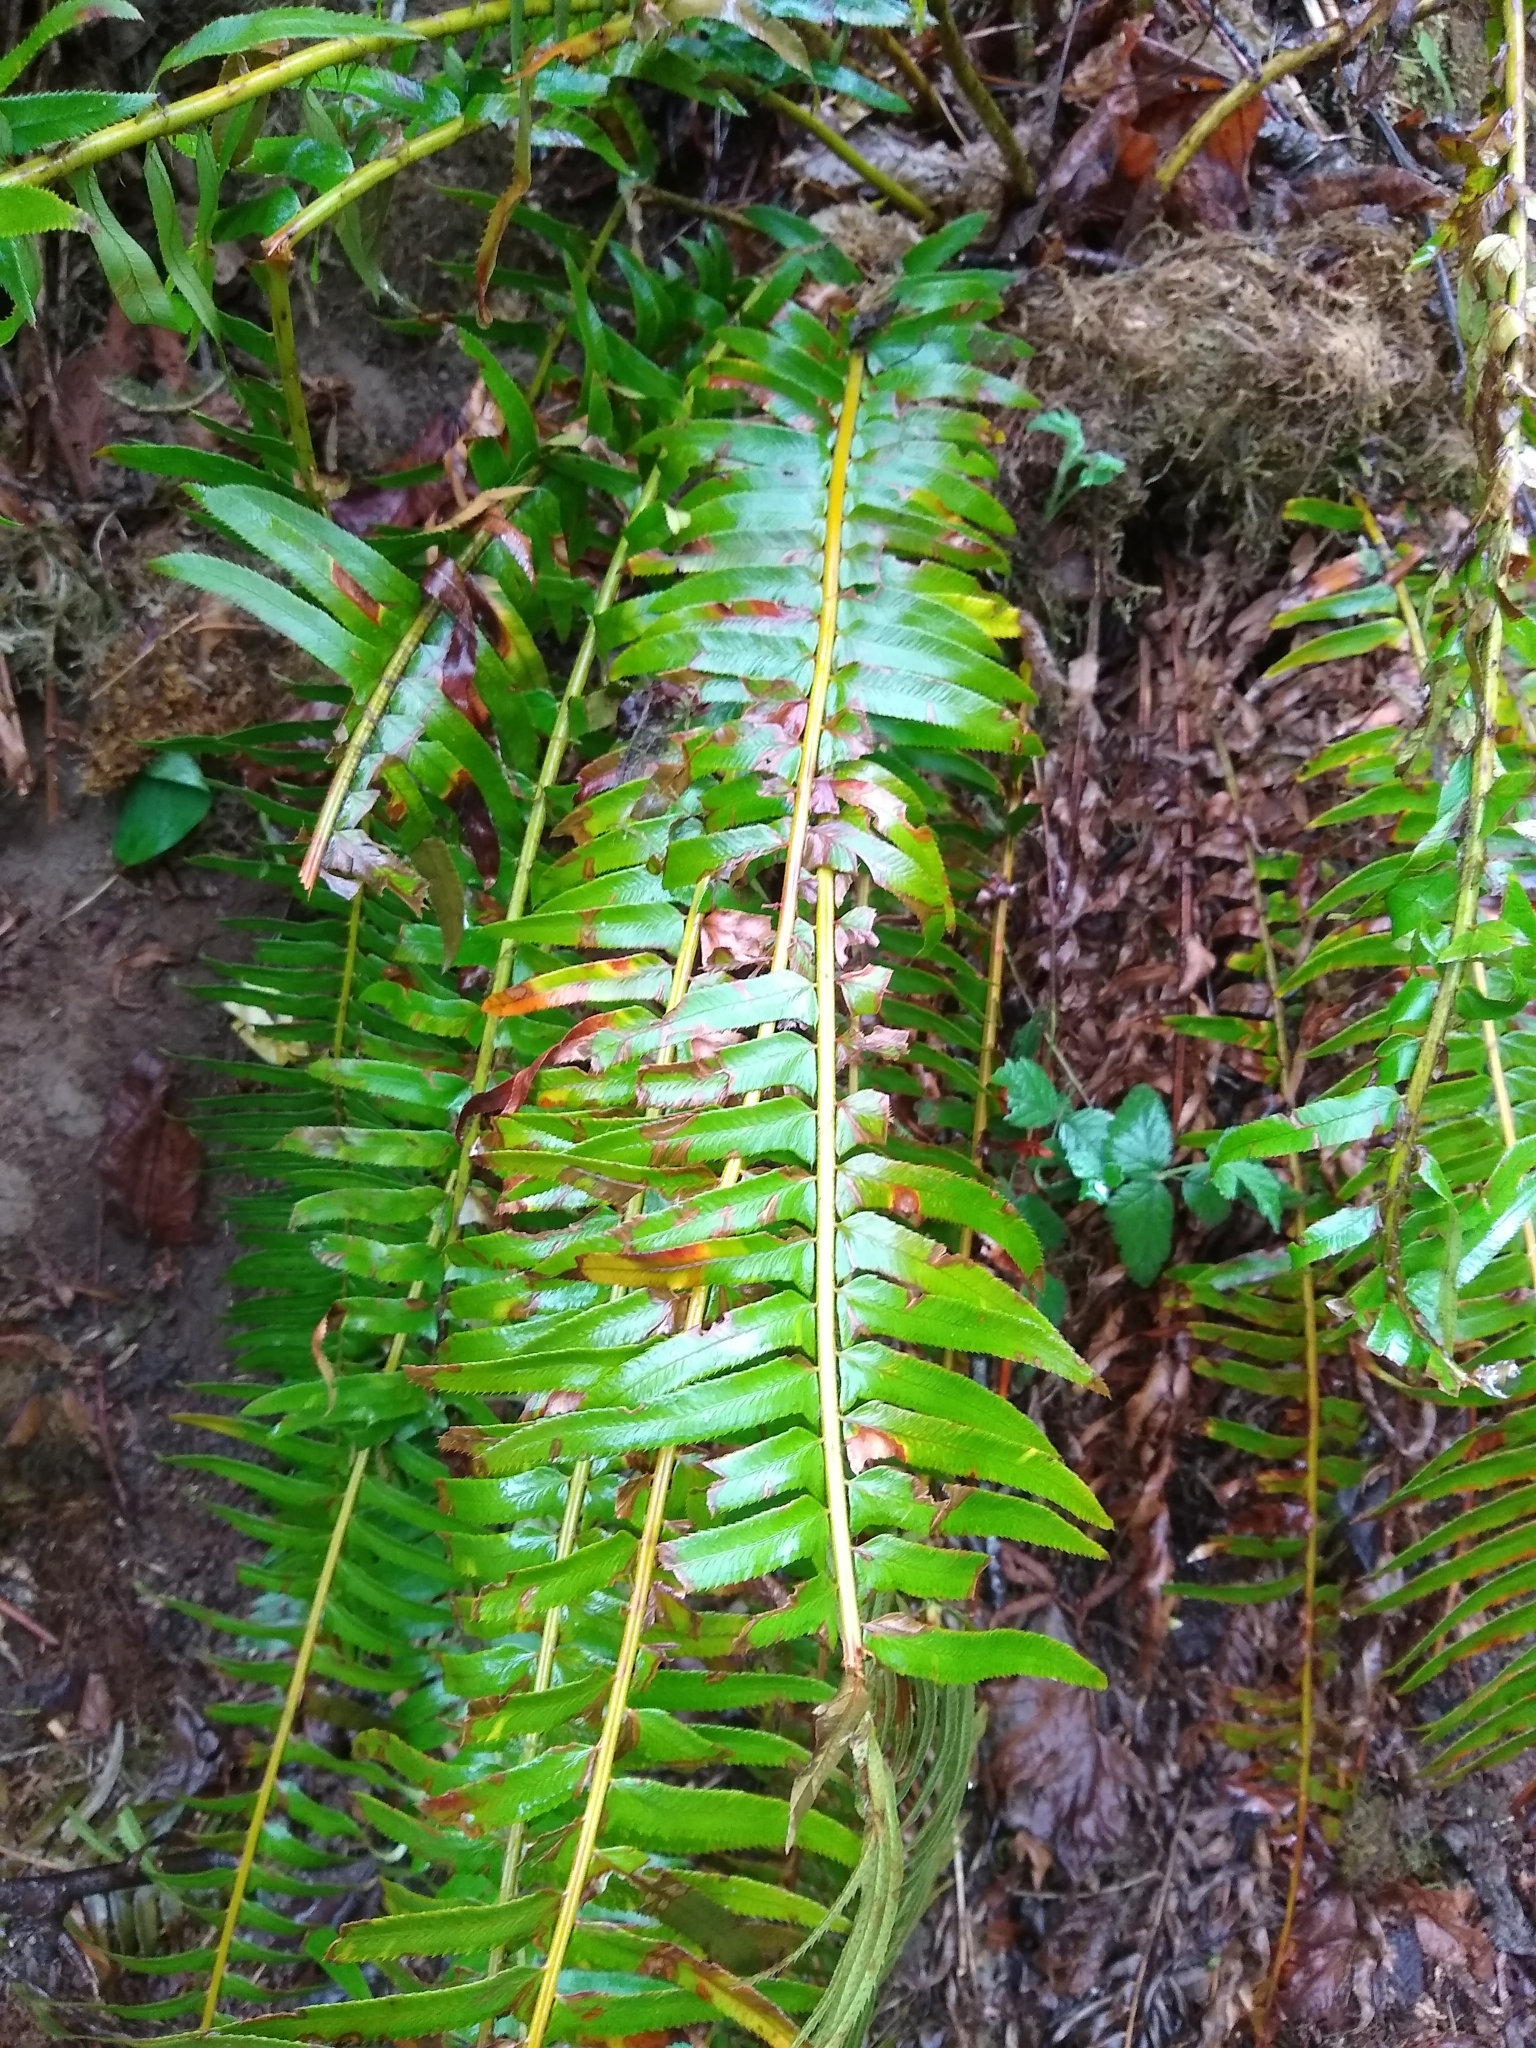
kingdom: Plantae
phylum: Tracheophyta
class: Polypodiopsida
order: Polypodiales
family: Dryopteridaceae
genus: Polystichum
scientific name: Polystichum munitum
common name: Western sword-fern
